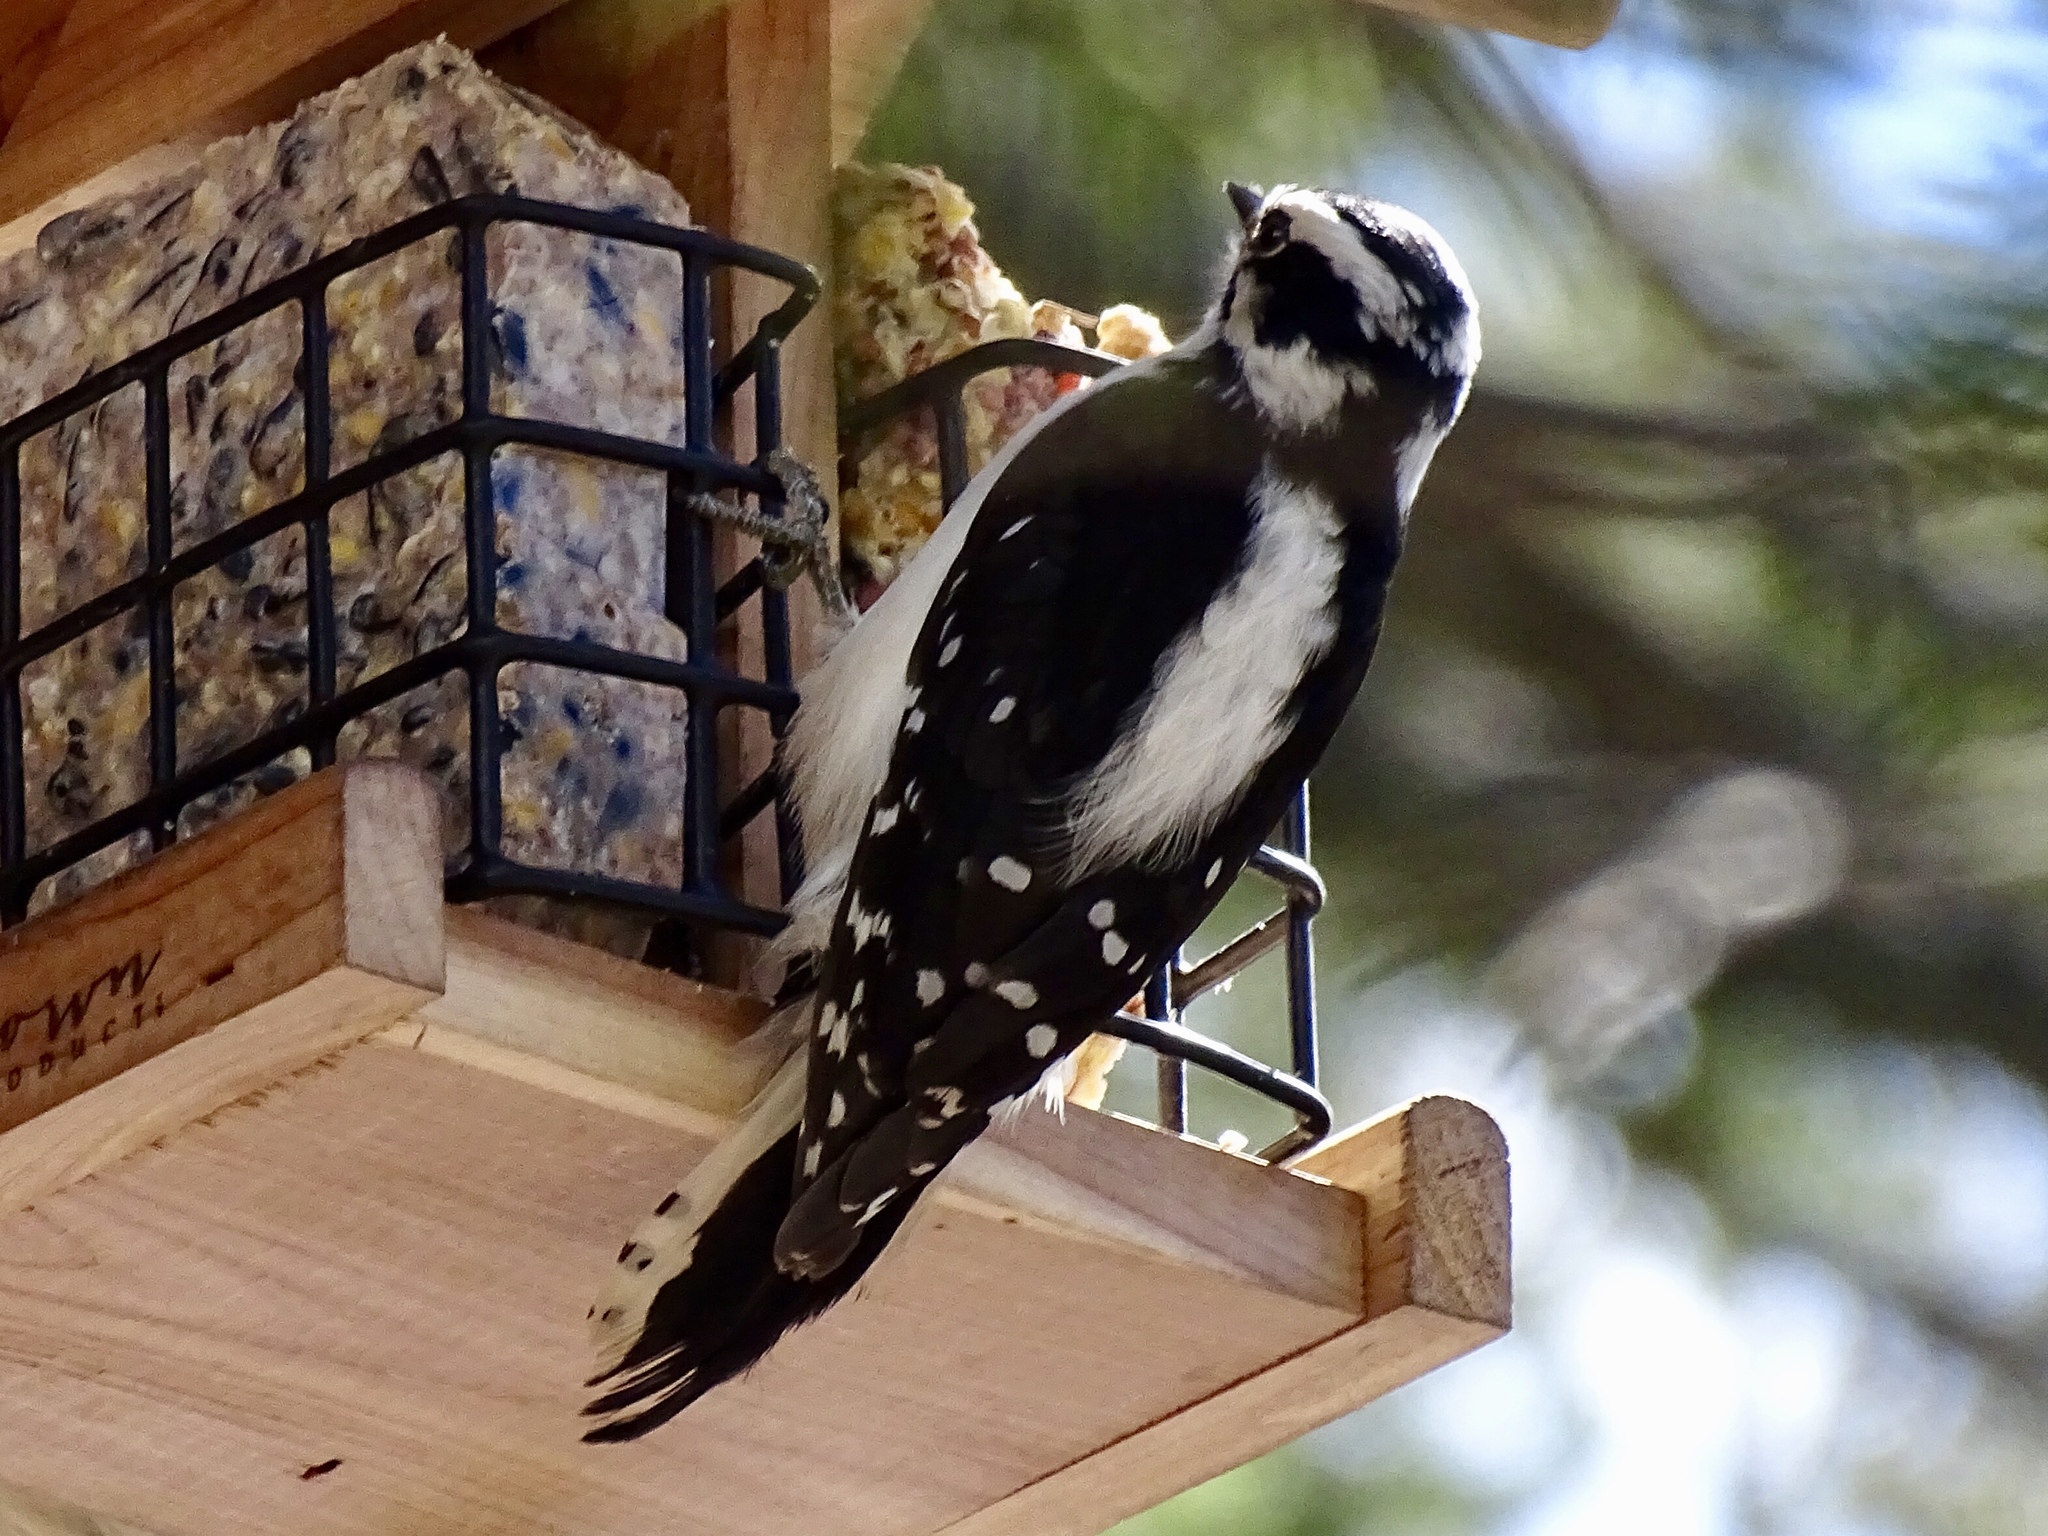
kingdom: Animalia
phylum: Chordata
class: Aves
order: Piciformes
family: Picidae
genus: Dryobates
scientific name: Dryobates pubescens
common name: Downy woodpecker
